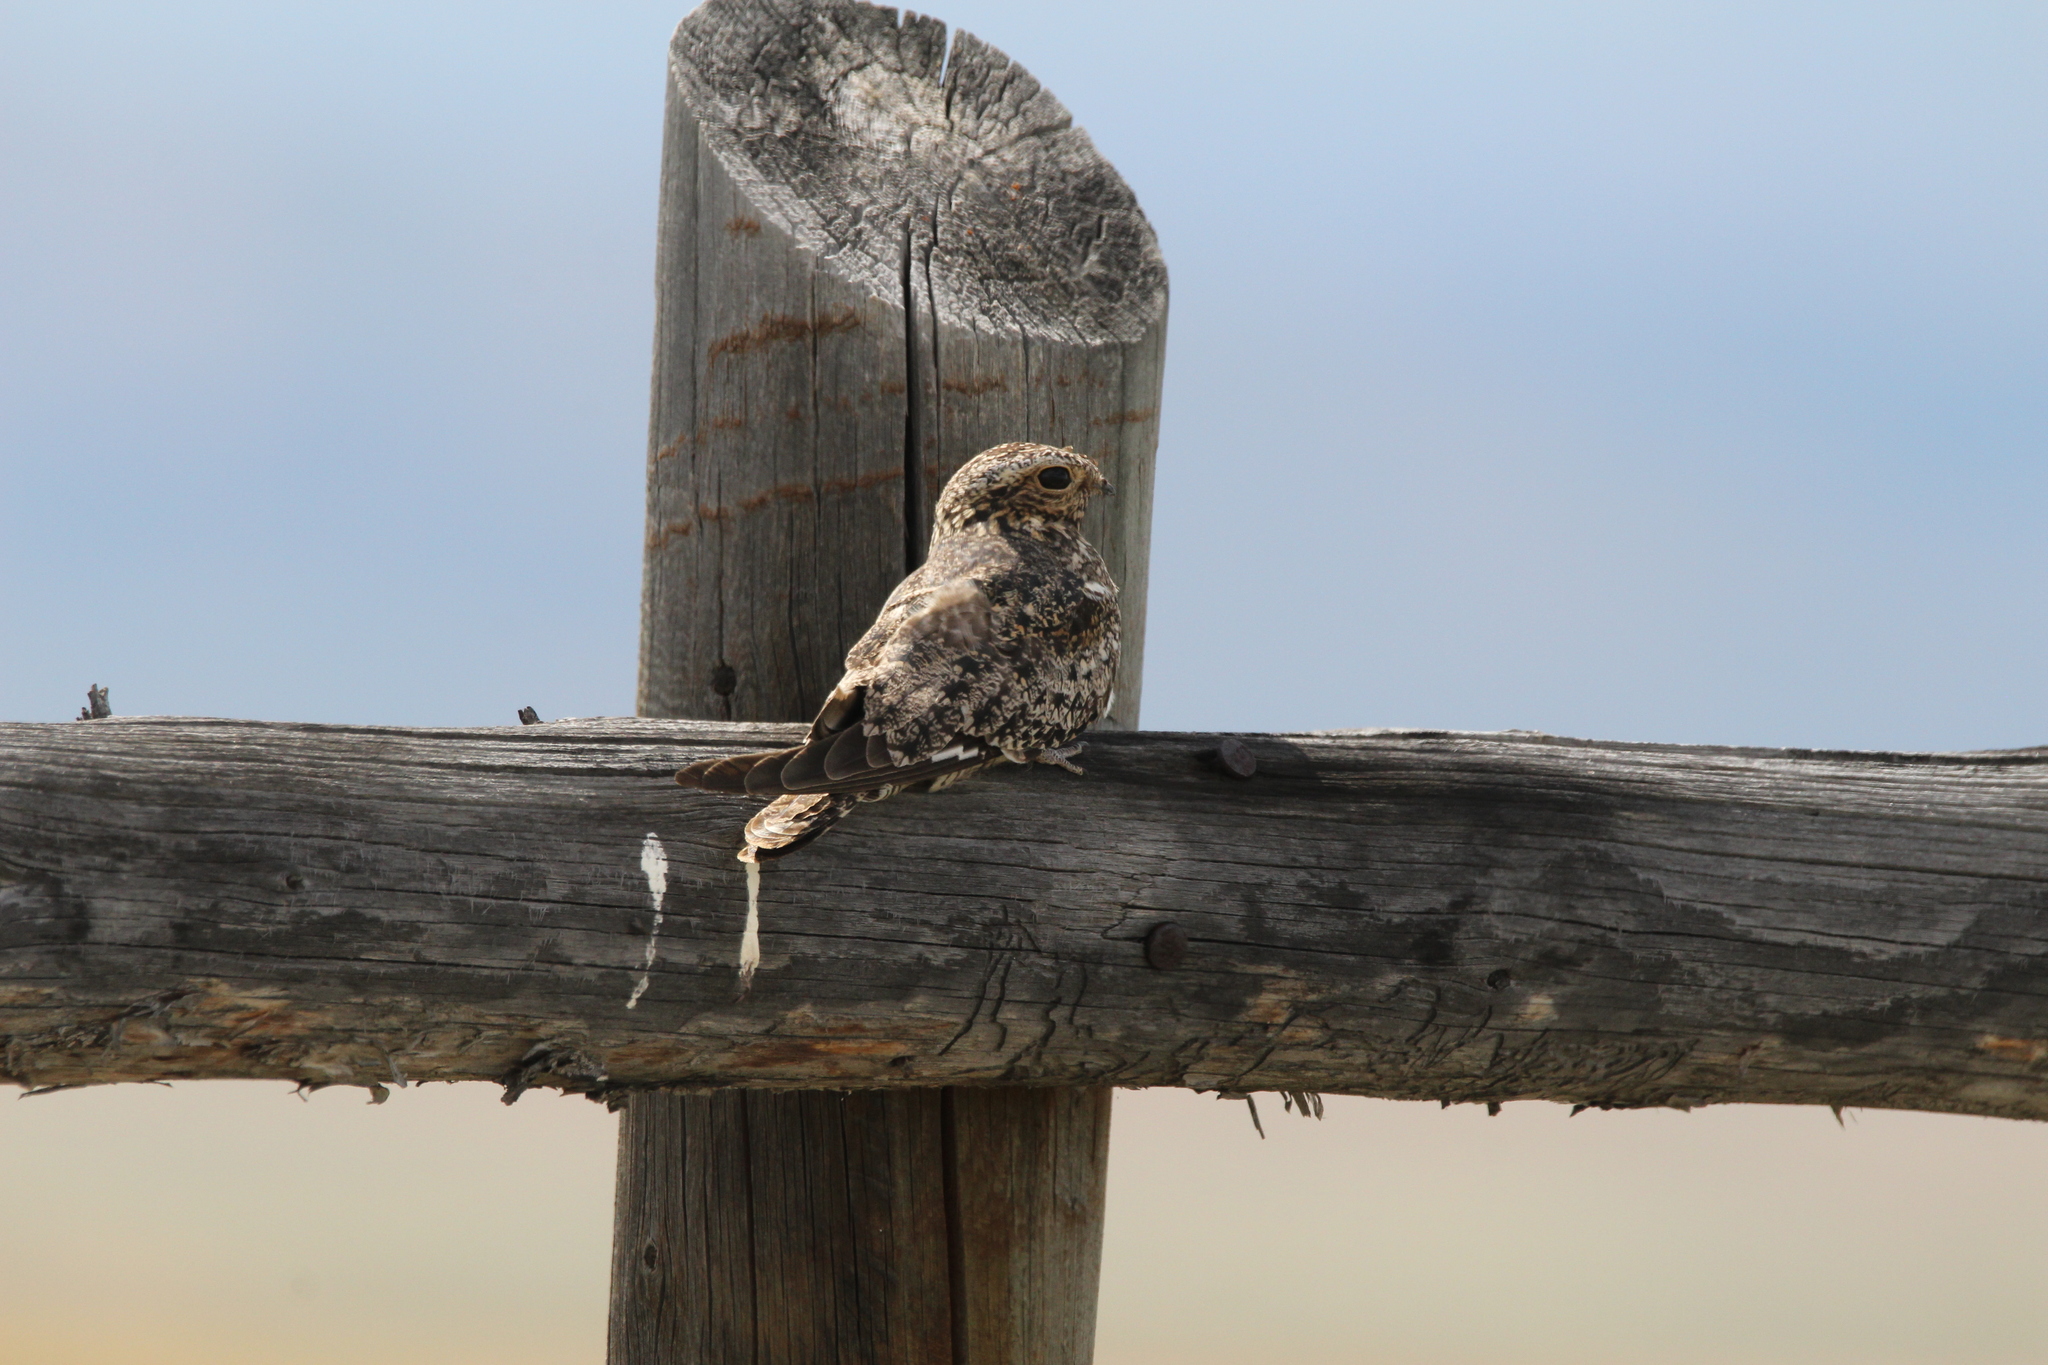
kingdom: Animalia
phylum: Chordata
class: Aves
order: Caprimulgiformes
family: Caprimulgidae
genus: Chordeiles
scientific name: Chordeiles minor
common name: Common nighthawk
